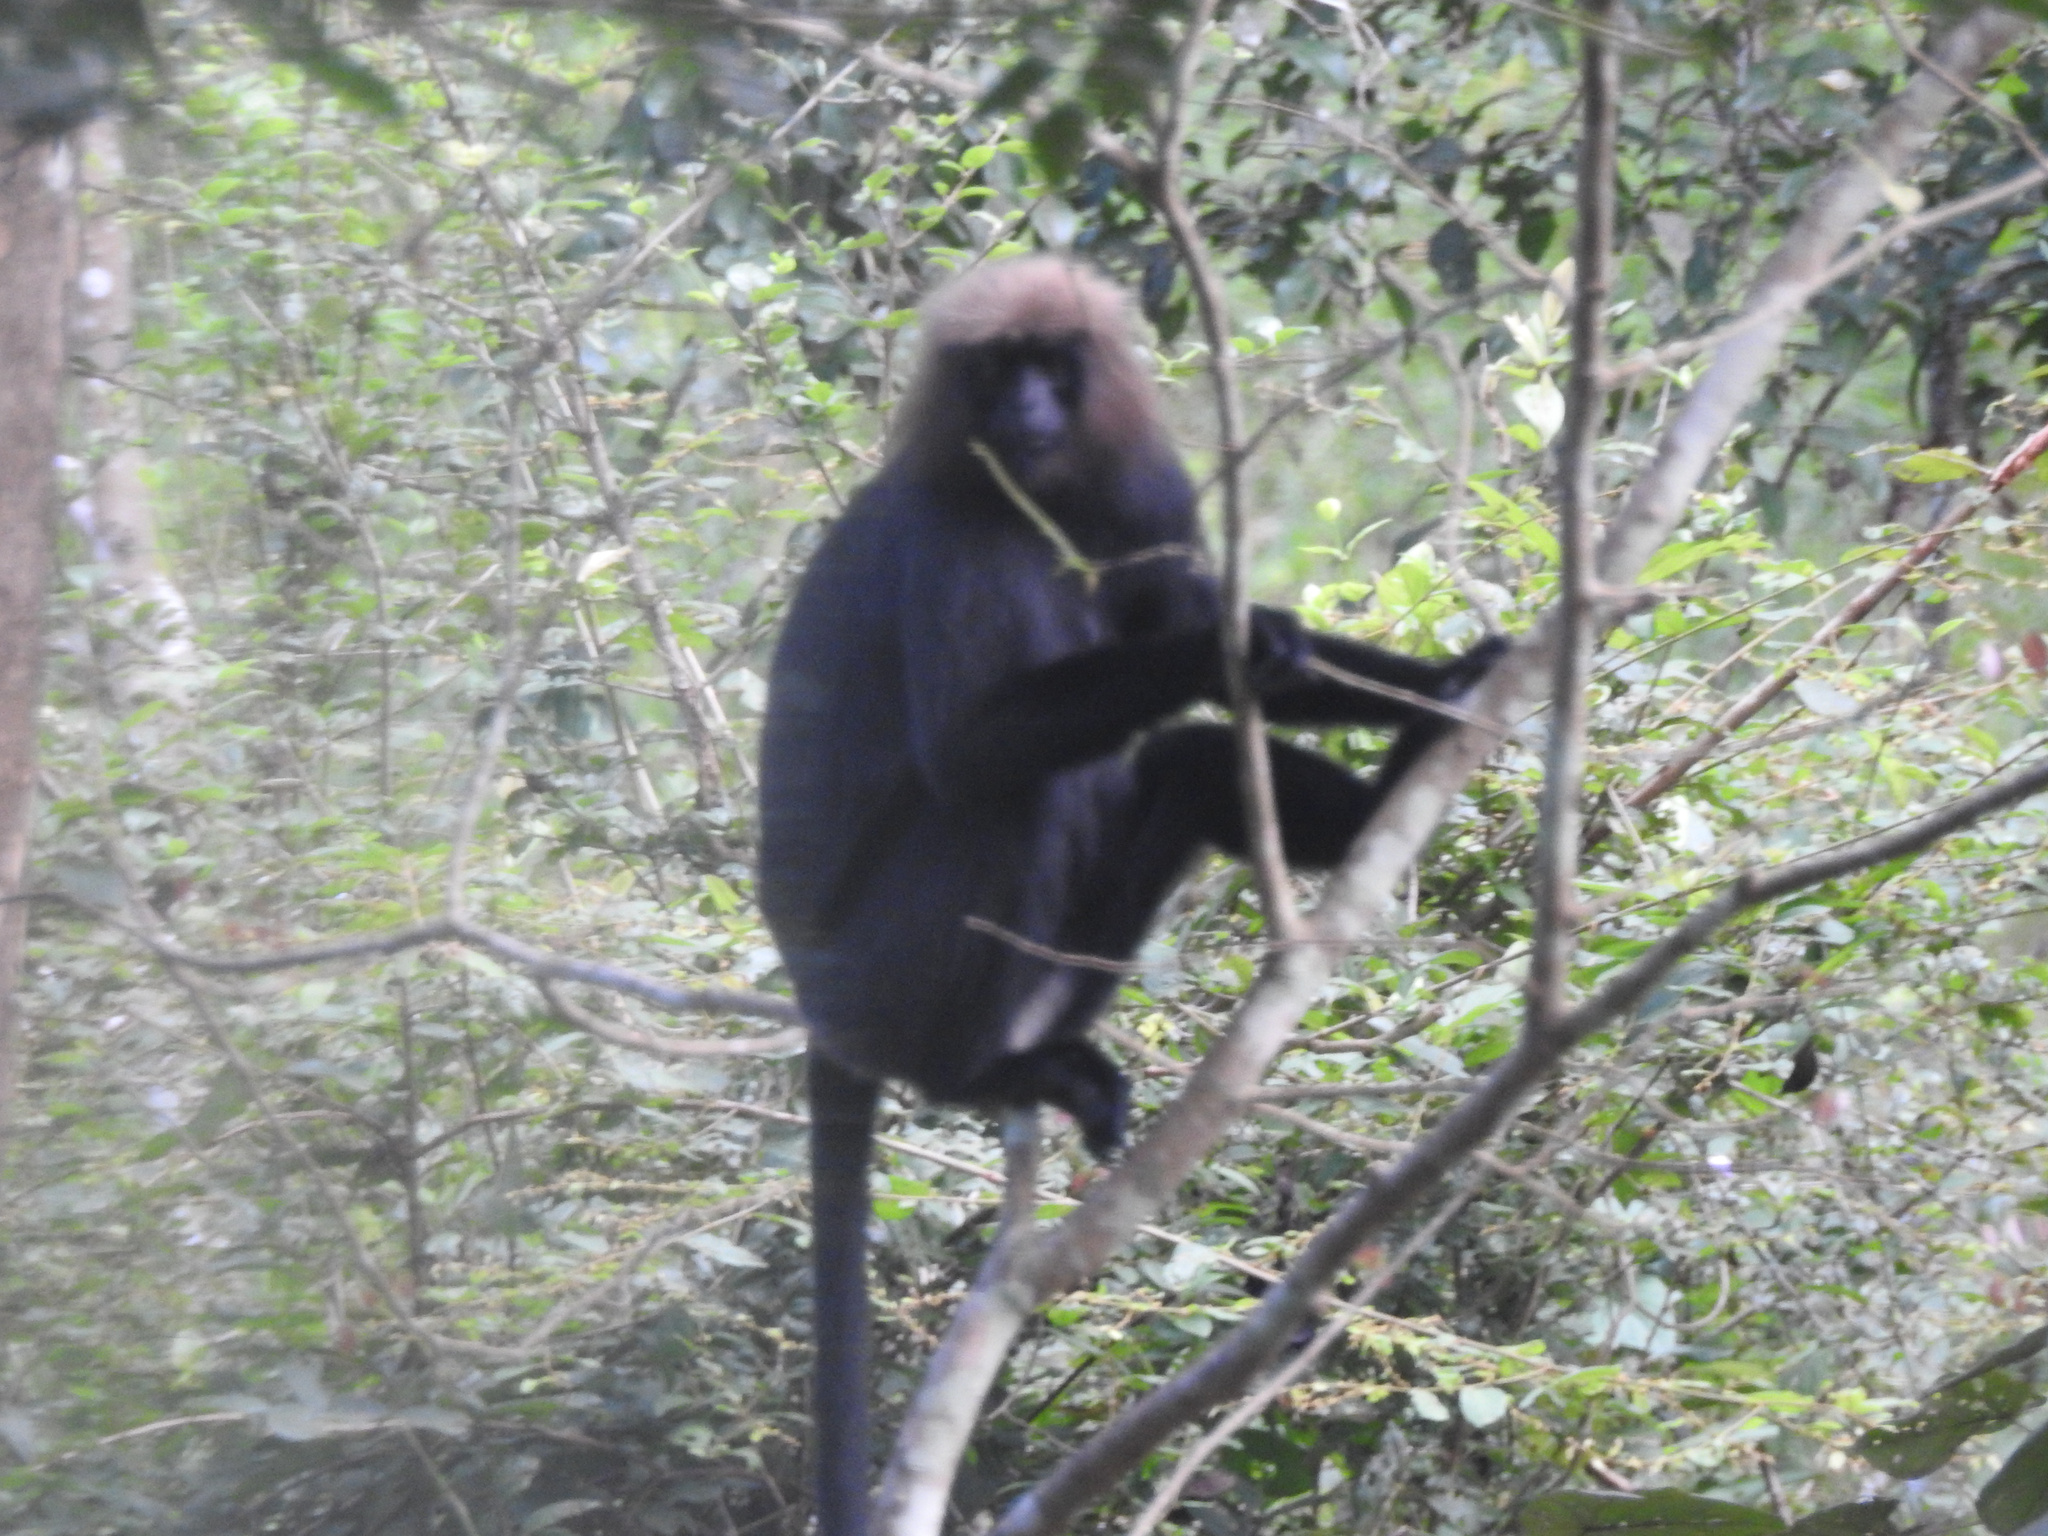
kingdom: Animalia
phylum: Chordata
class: Mammalia
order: Primates
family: Cercopithecidae
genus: Semnopithecus
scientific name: Semnopithecus johnii
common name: Nilgiri langur
